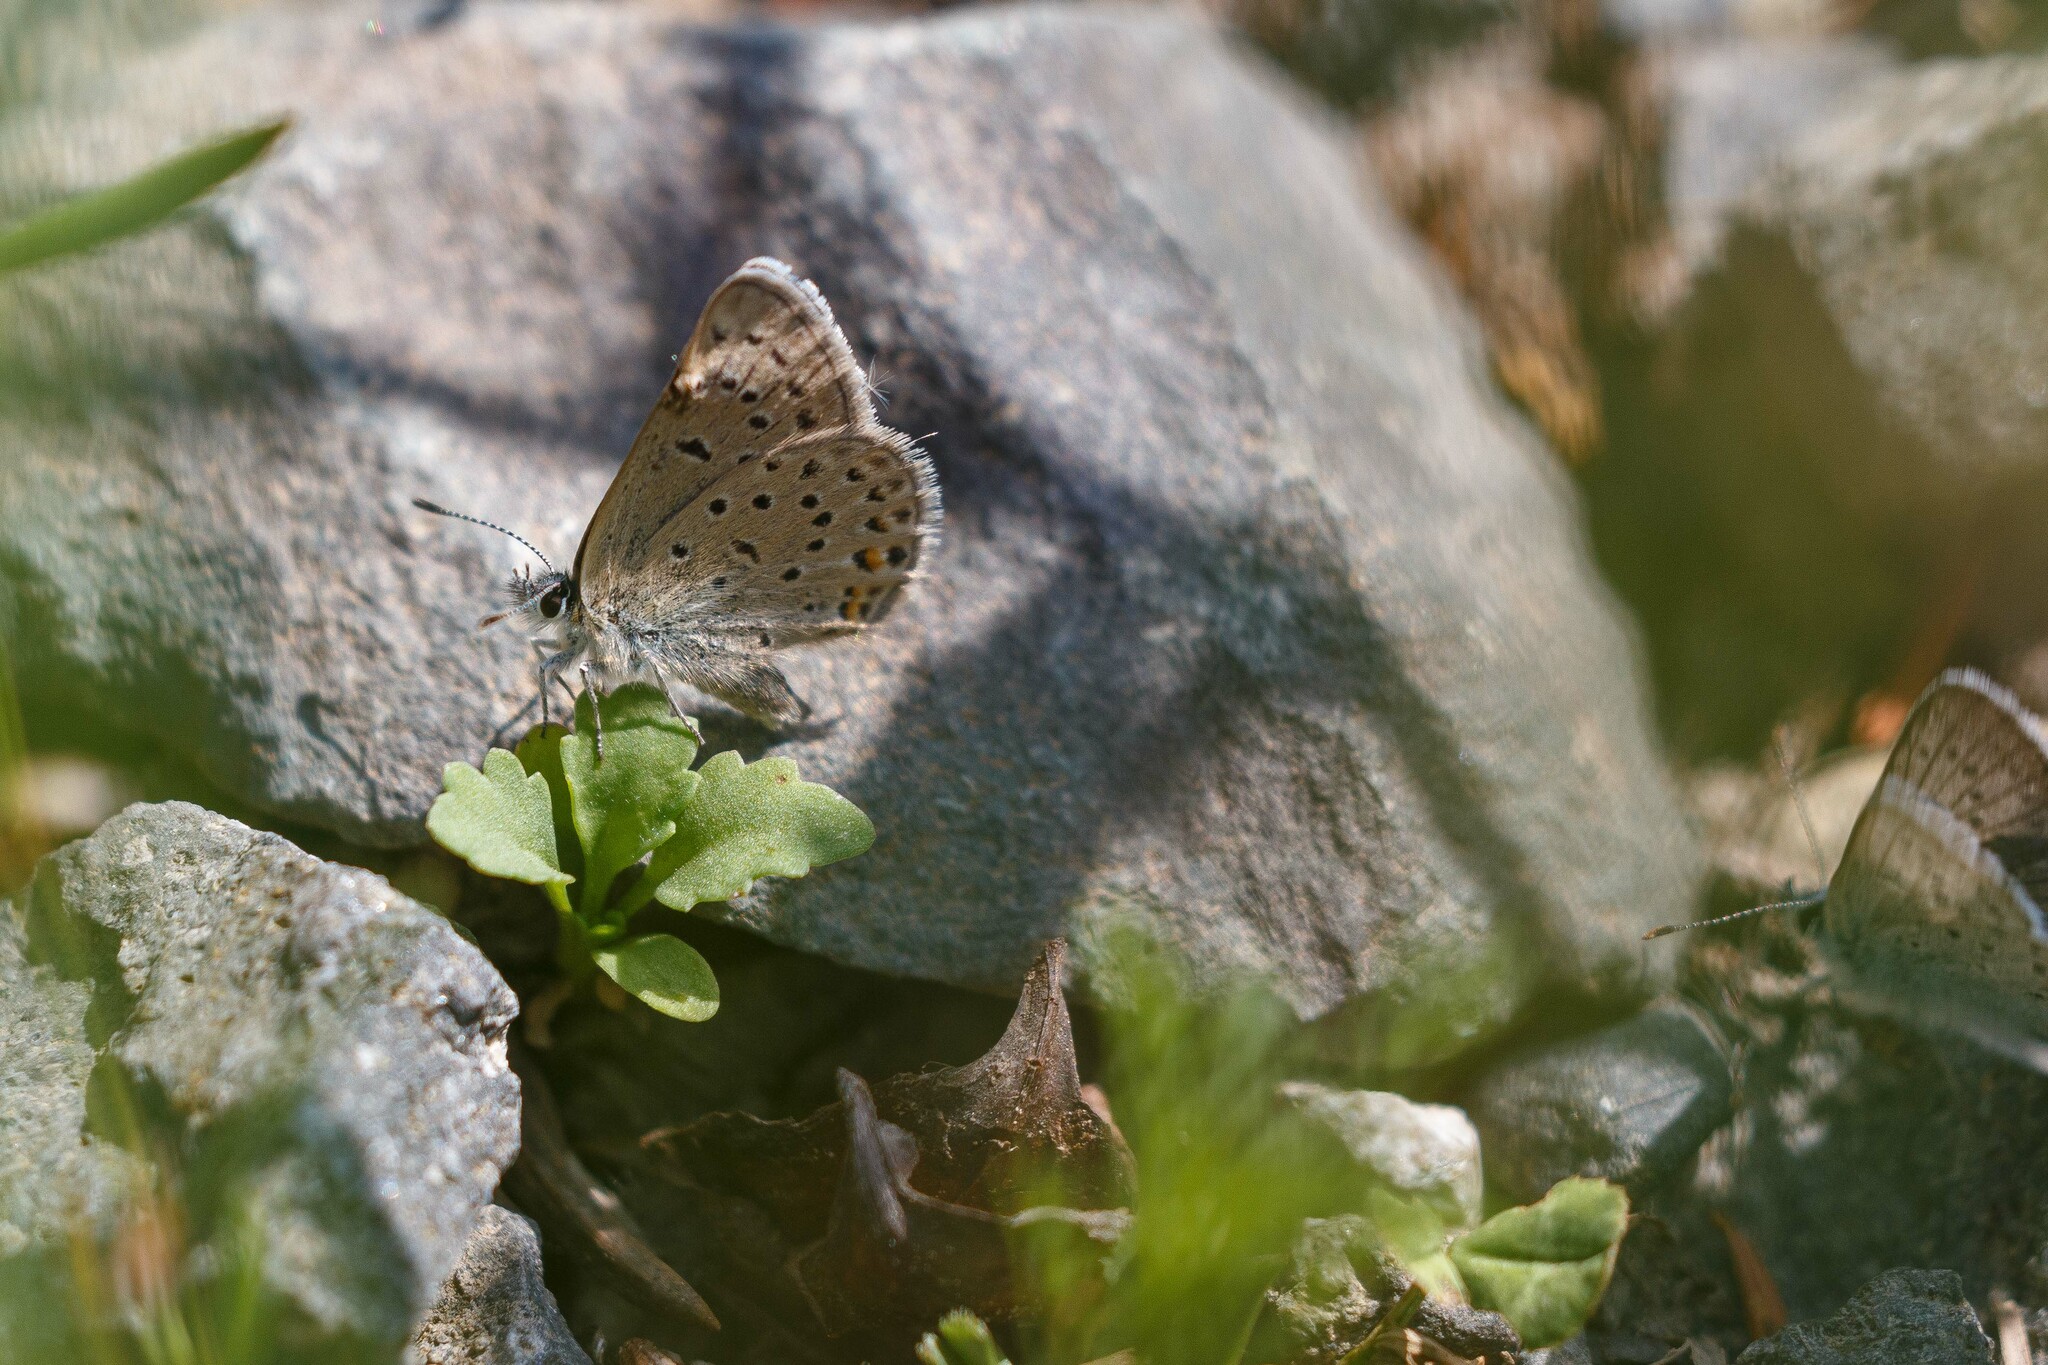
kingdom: Animalia
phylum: Arthropoda
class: Insecta
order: Lepidoptera
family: Lycaenidae
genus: Icaricia
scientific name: Icaricia saepiolus
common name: Greenish blue
